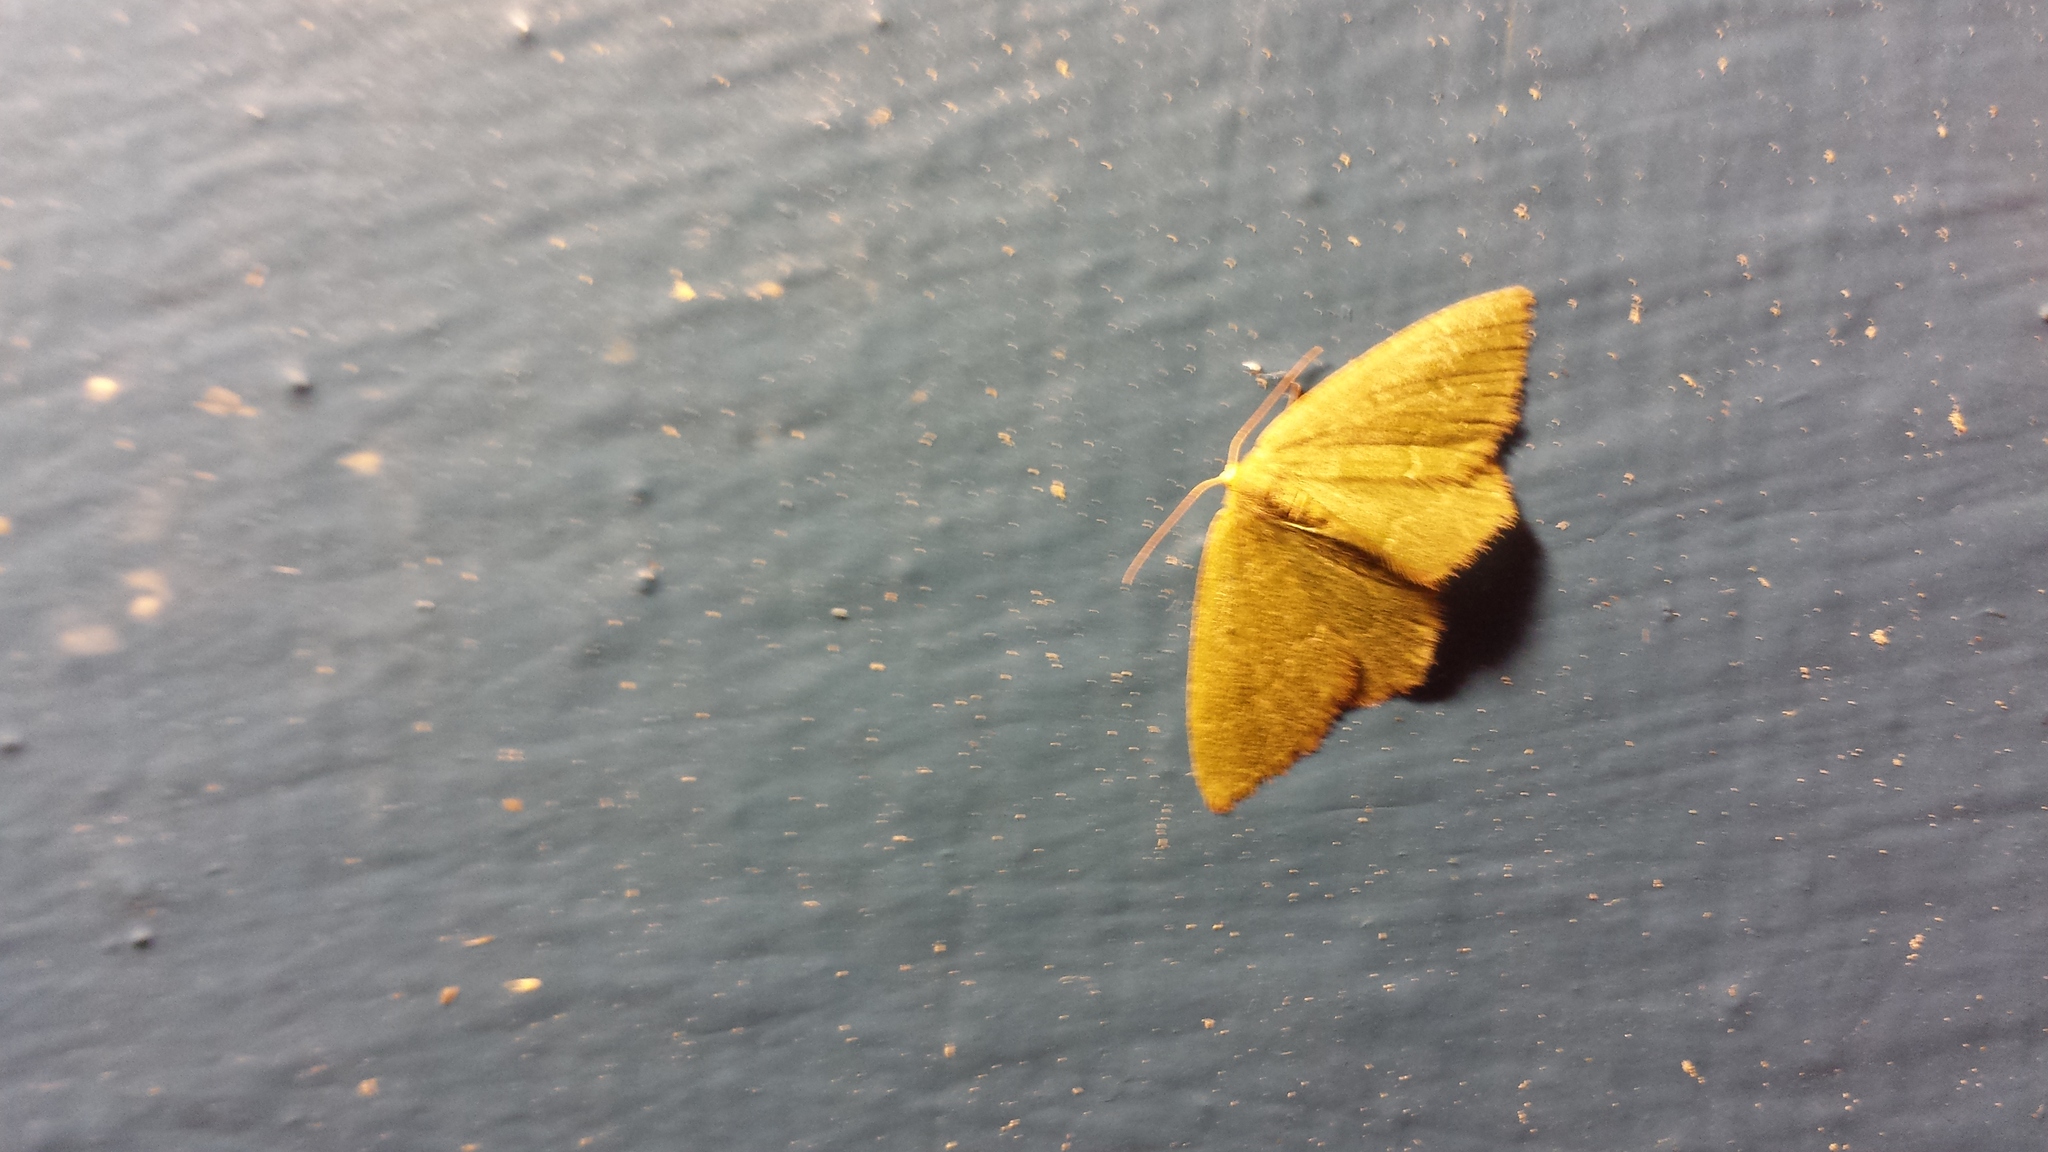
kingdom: Animalia
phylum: Arthropoda
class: Insecta
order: Lepidoptera
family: Geometridae
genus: Thalera
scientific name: Thalera pistasciaria
